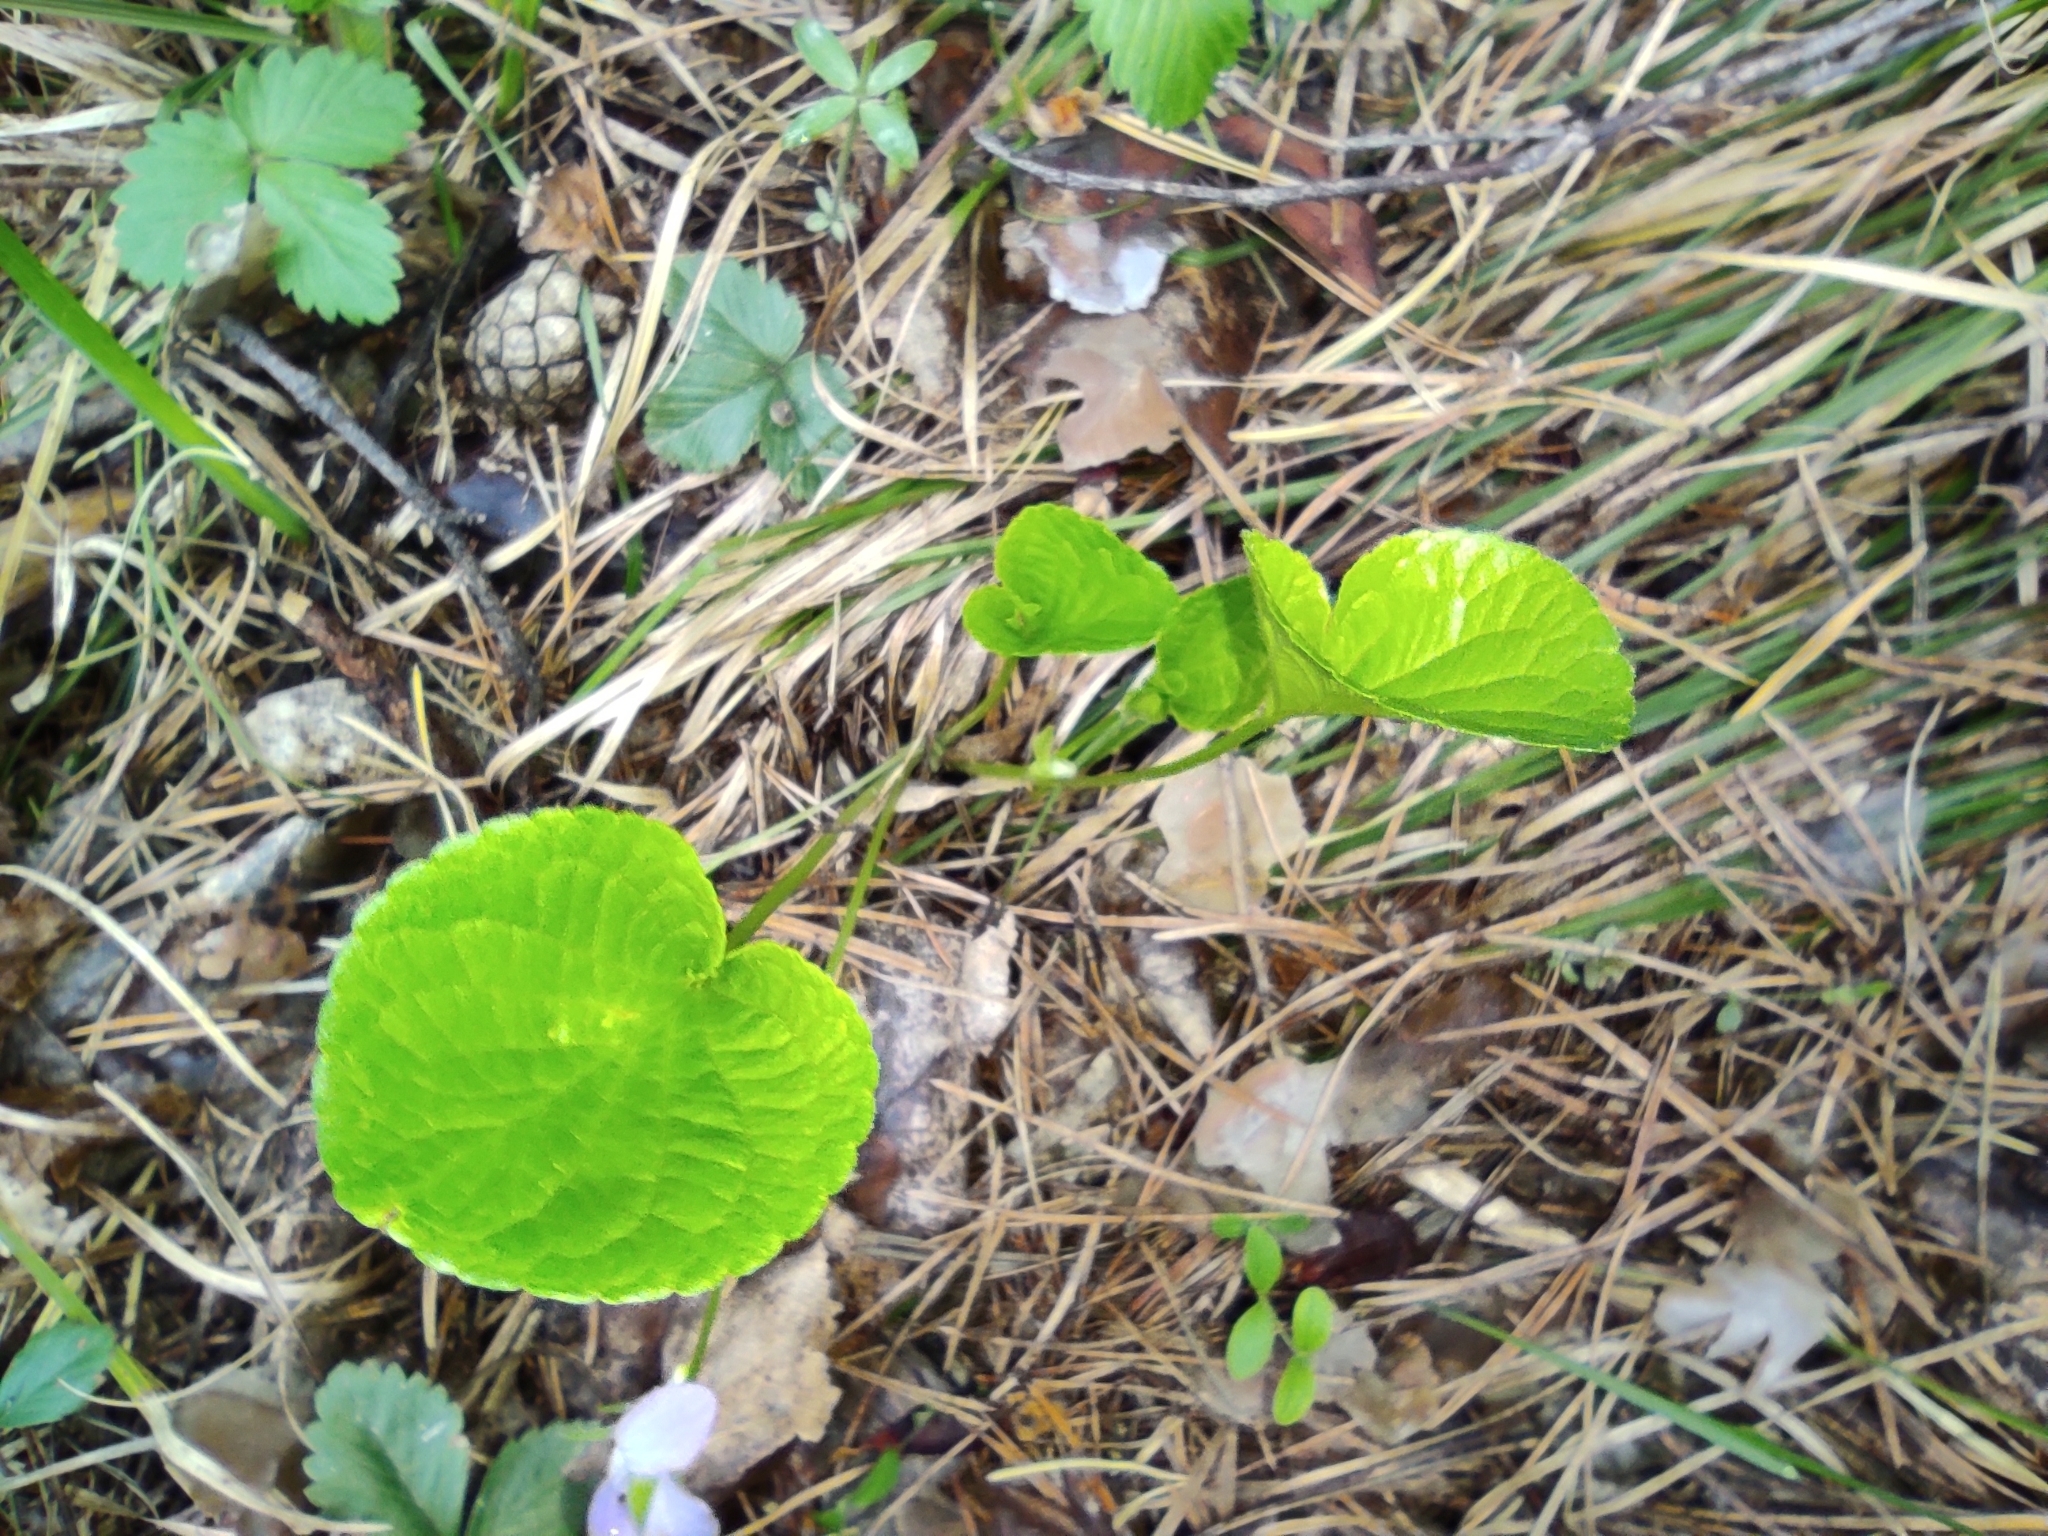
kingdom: Plantae
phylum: Tracheophyta
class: Magnoliopsida
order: Malpighiales
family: Violaceae
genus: Viola
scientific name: Viola mirabilis
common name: Wonder violet
